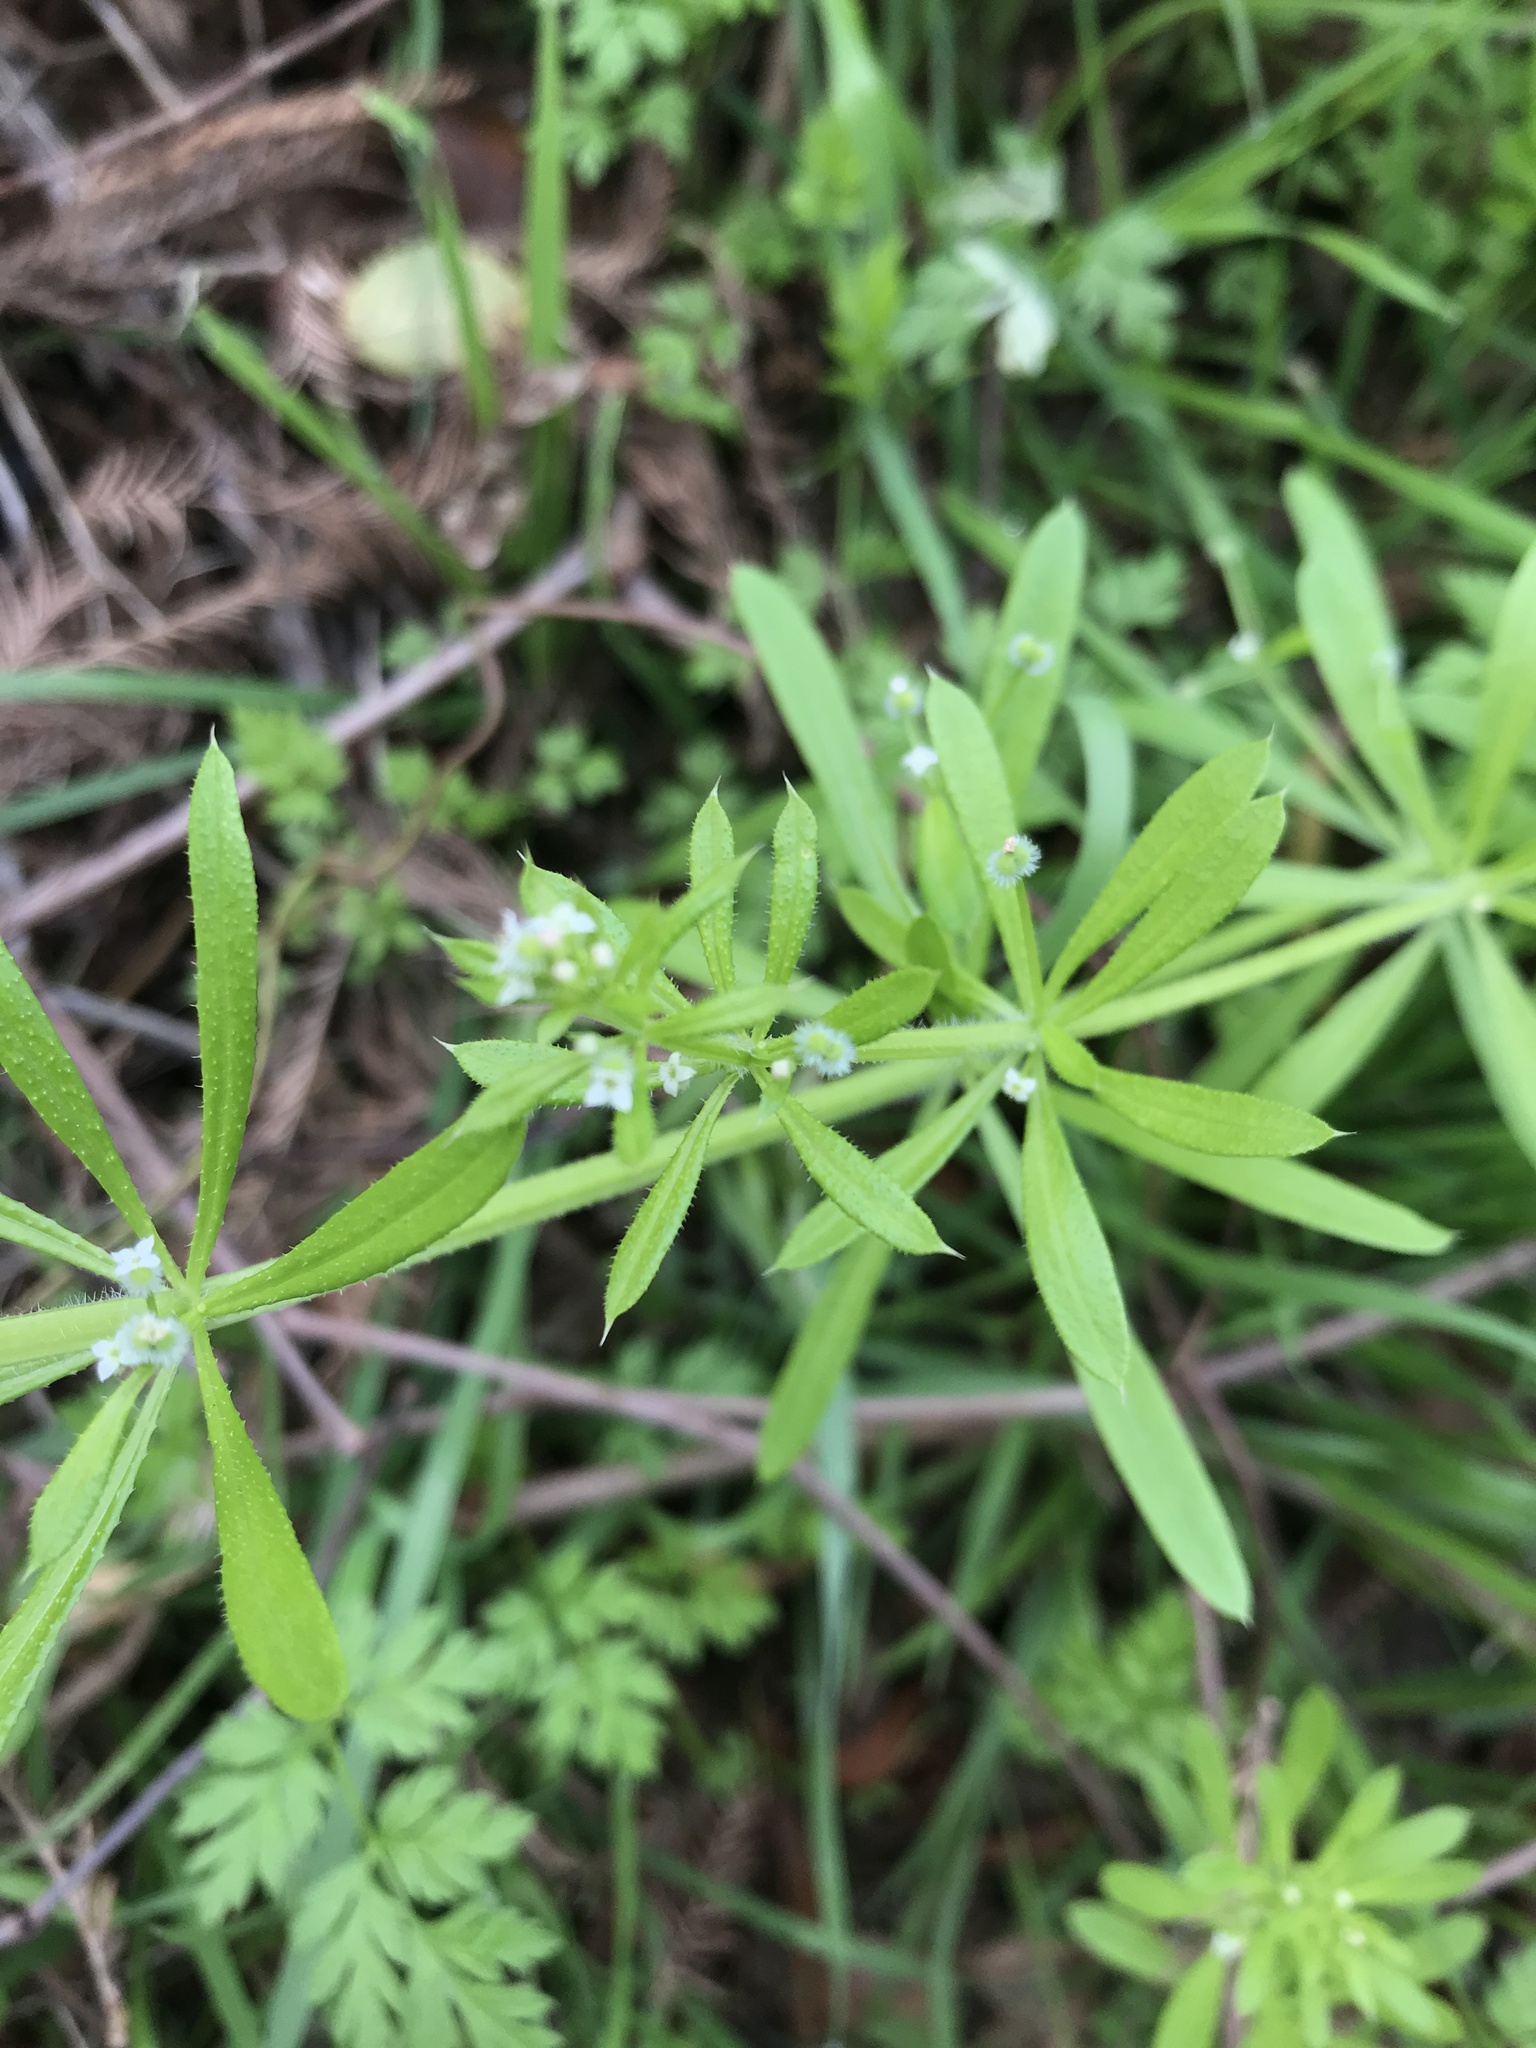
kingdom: Plantae
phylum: Tracheophyta
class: Magnoliopsida
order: Gentianales
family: Rubiaceae
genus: Galium
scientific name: Galium aparine
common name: Cleavers
